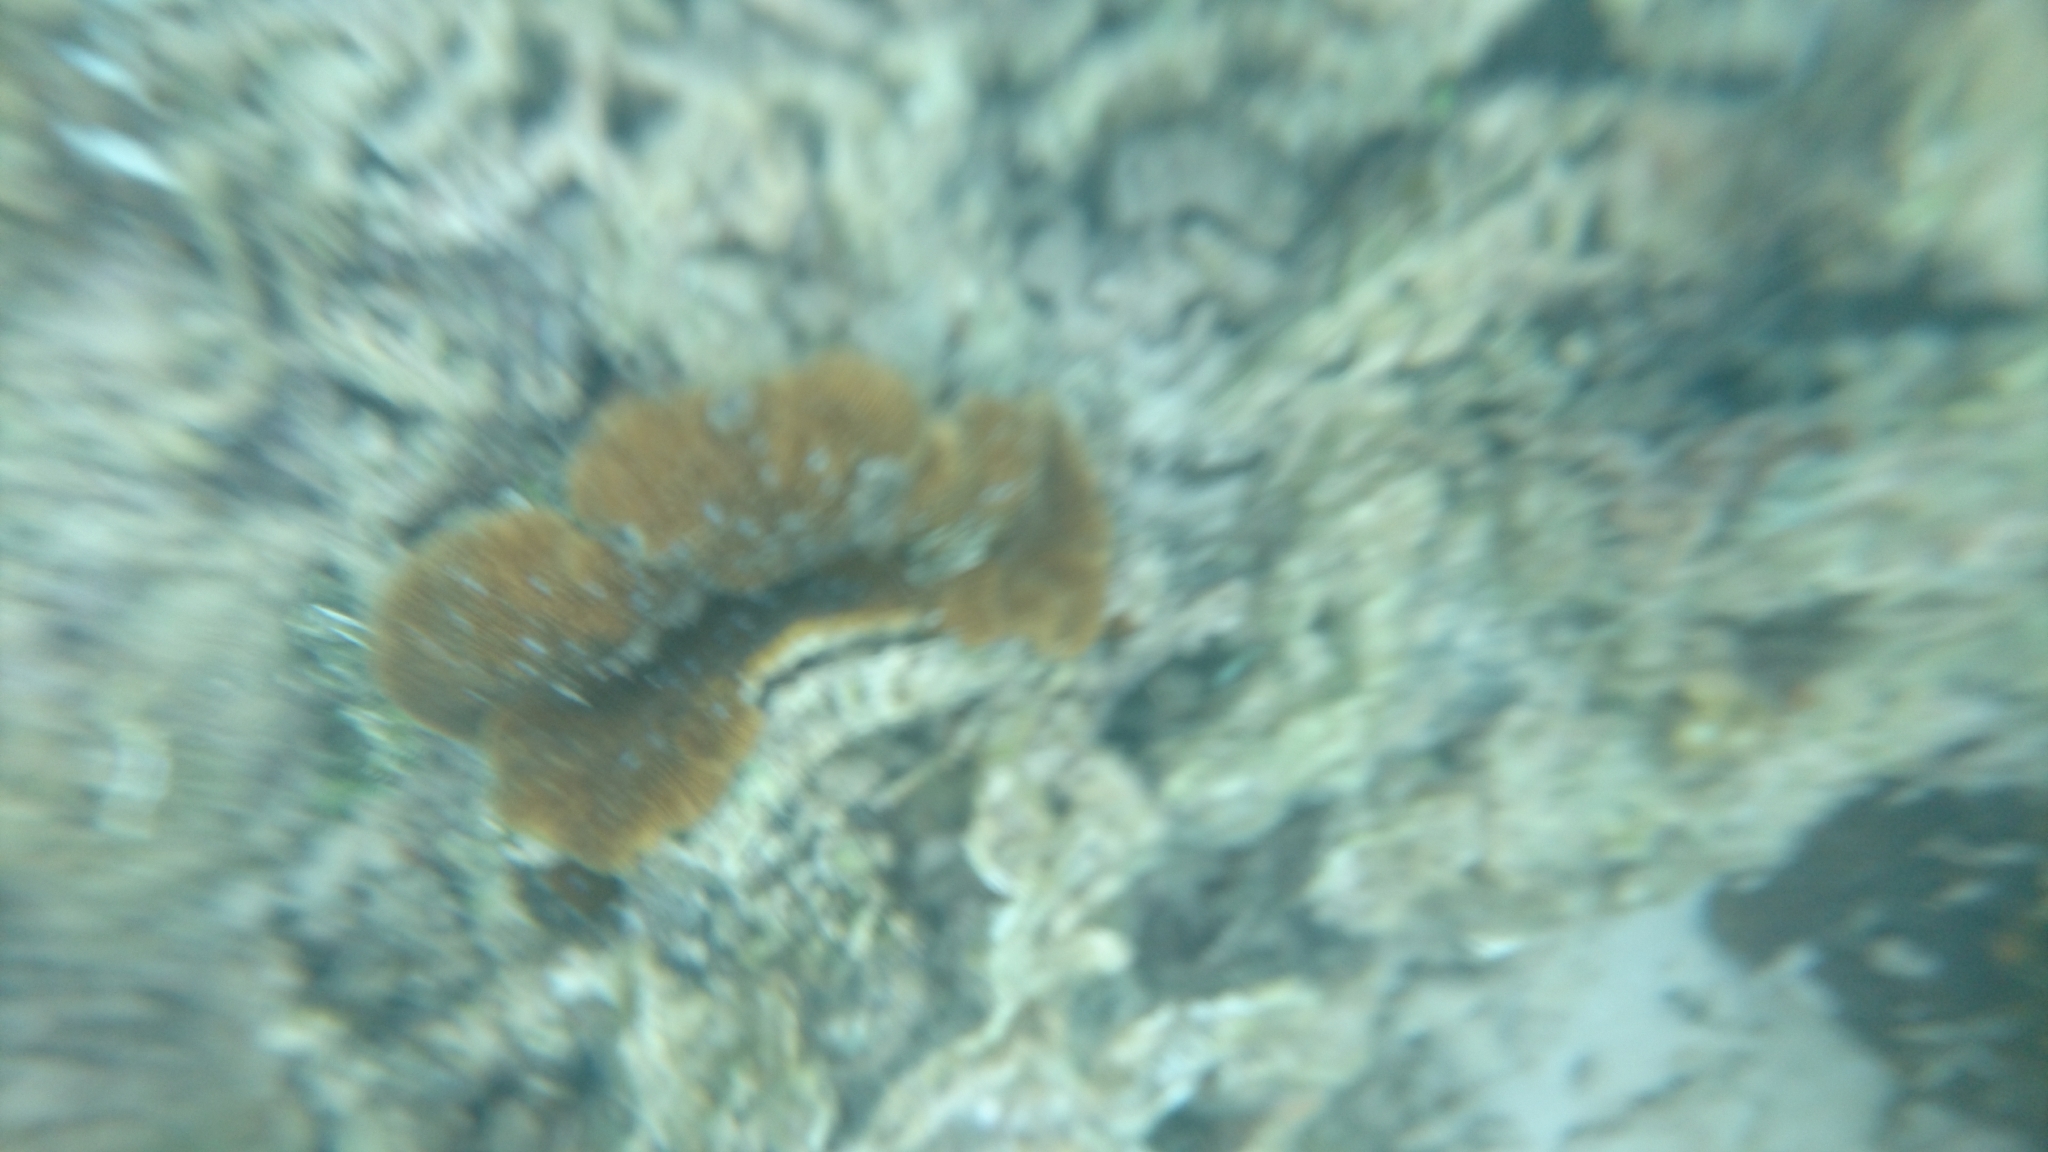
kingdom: Animalia
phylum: Cnidaria
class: Anthozoa
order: Scleractinia
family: Fungiidae
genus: Lithophyllon
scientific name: Lithophyllon undulatum
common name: Stone-leaf coral
